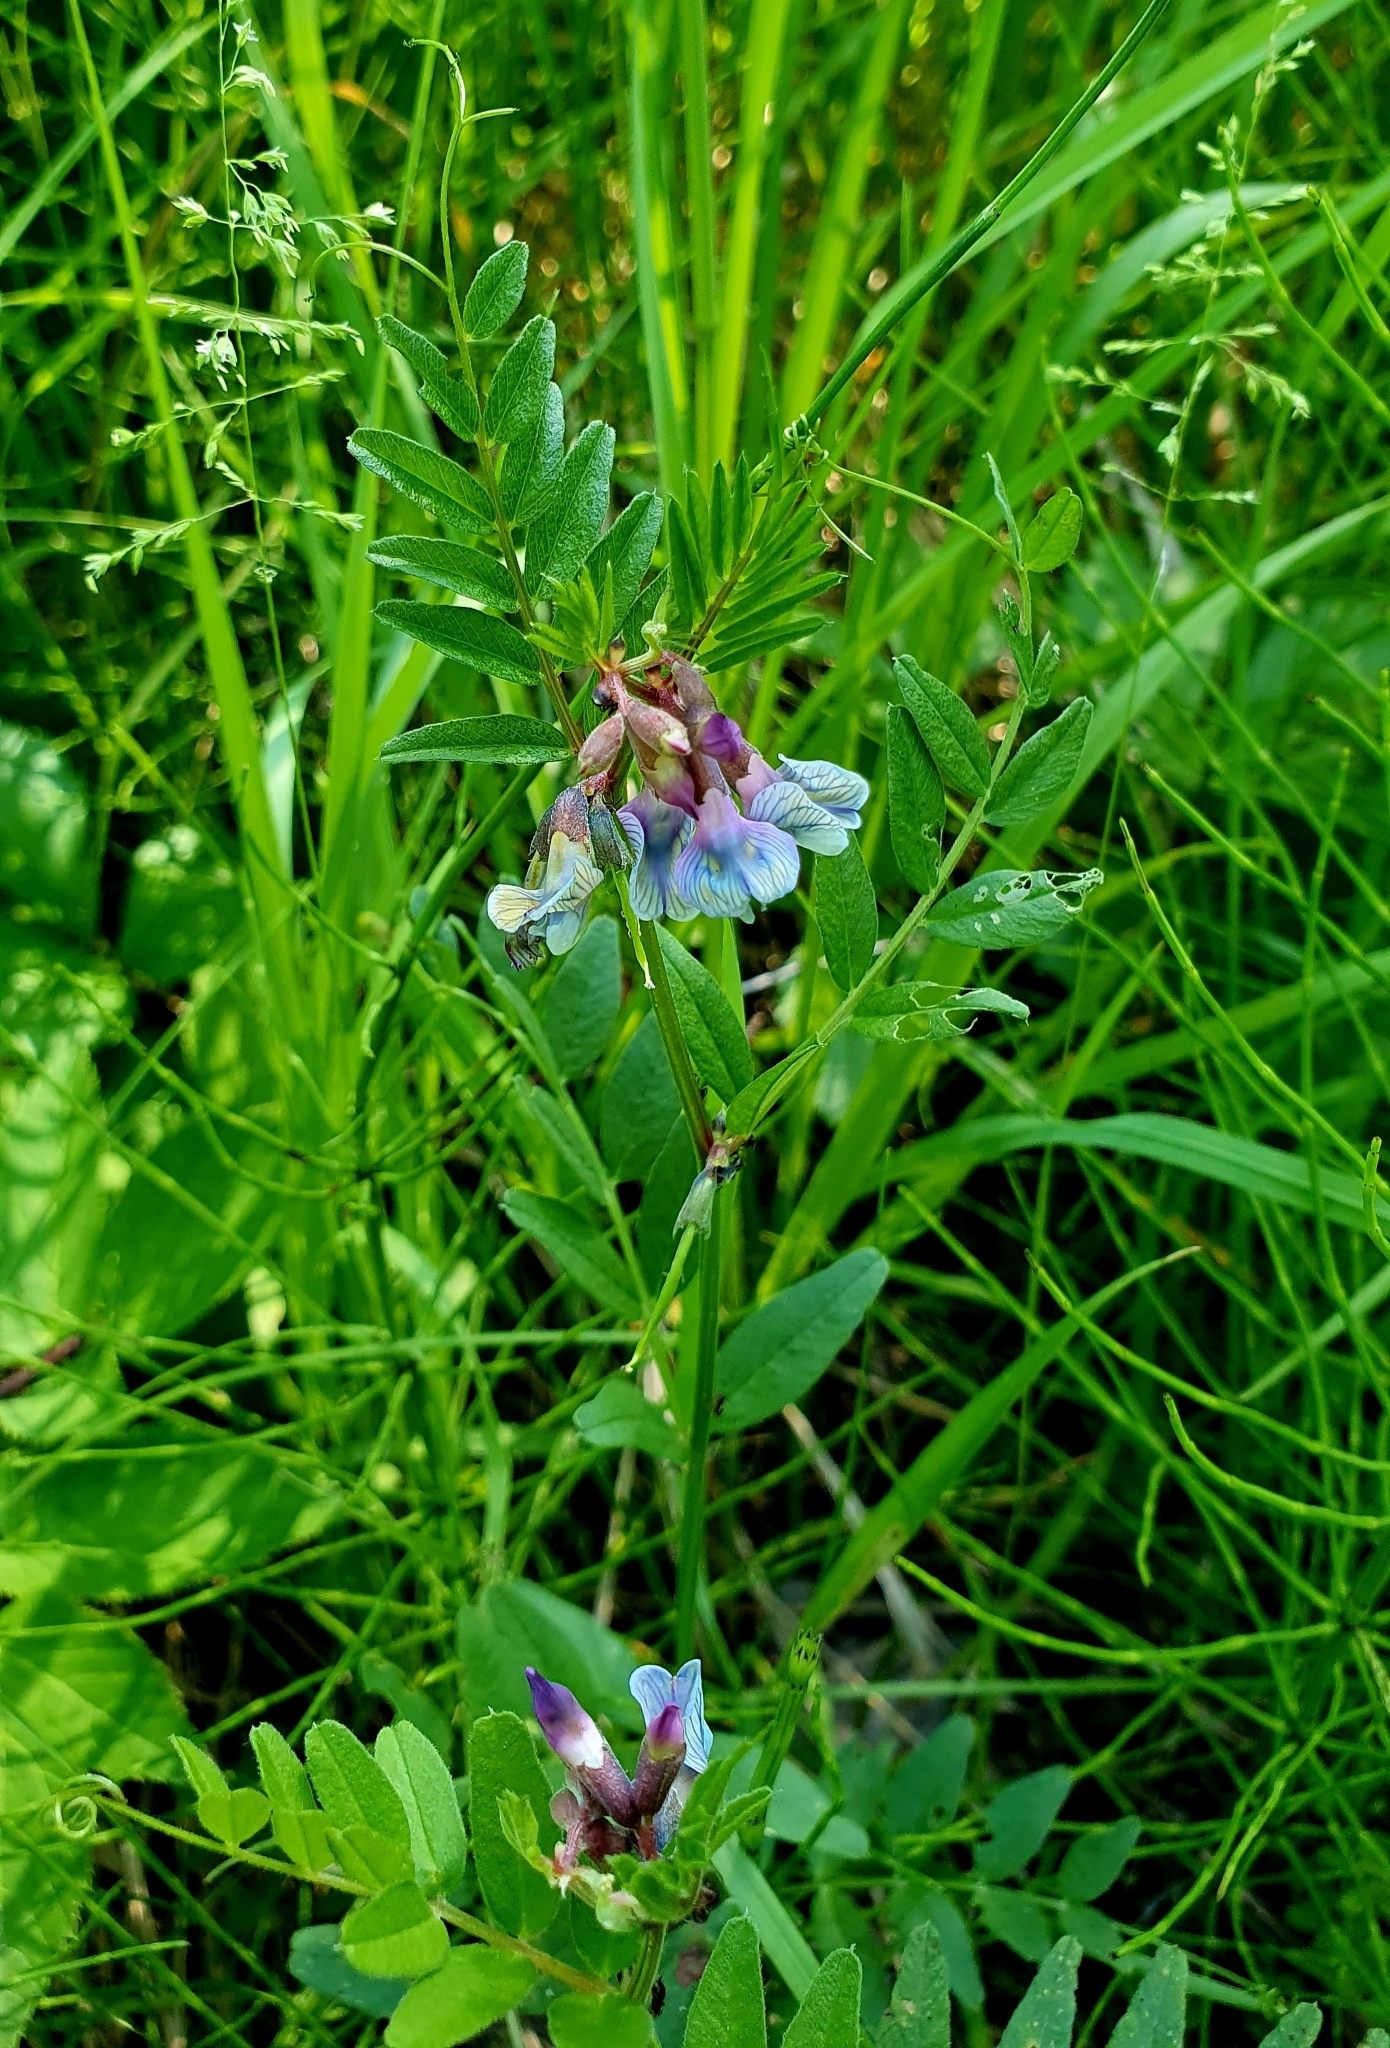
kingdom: Plantae
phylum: Tracheophyta
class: Magnoliopsida
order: Fabales
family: Fabaceae
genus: Vicia
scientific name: Vicia sepium
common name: Bush vetch
